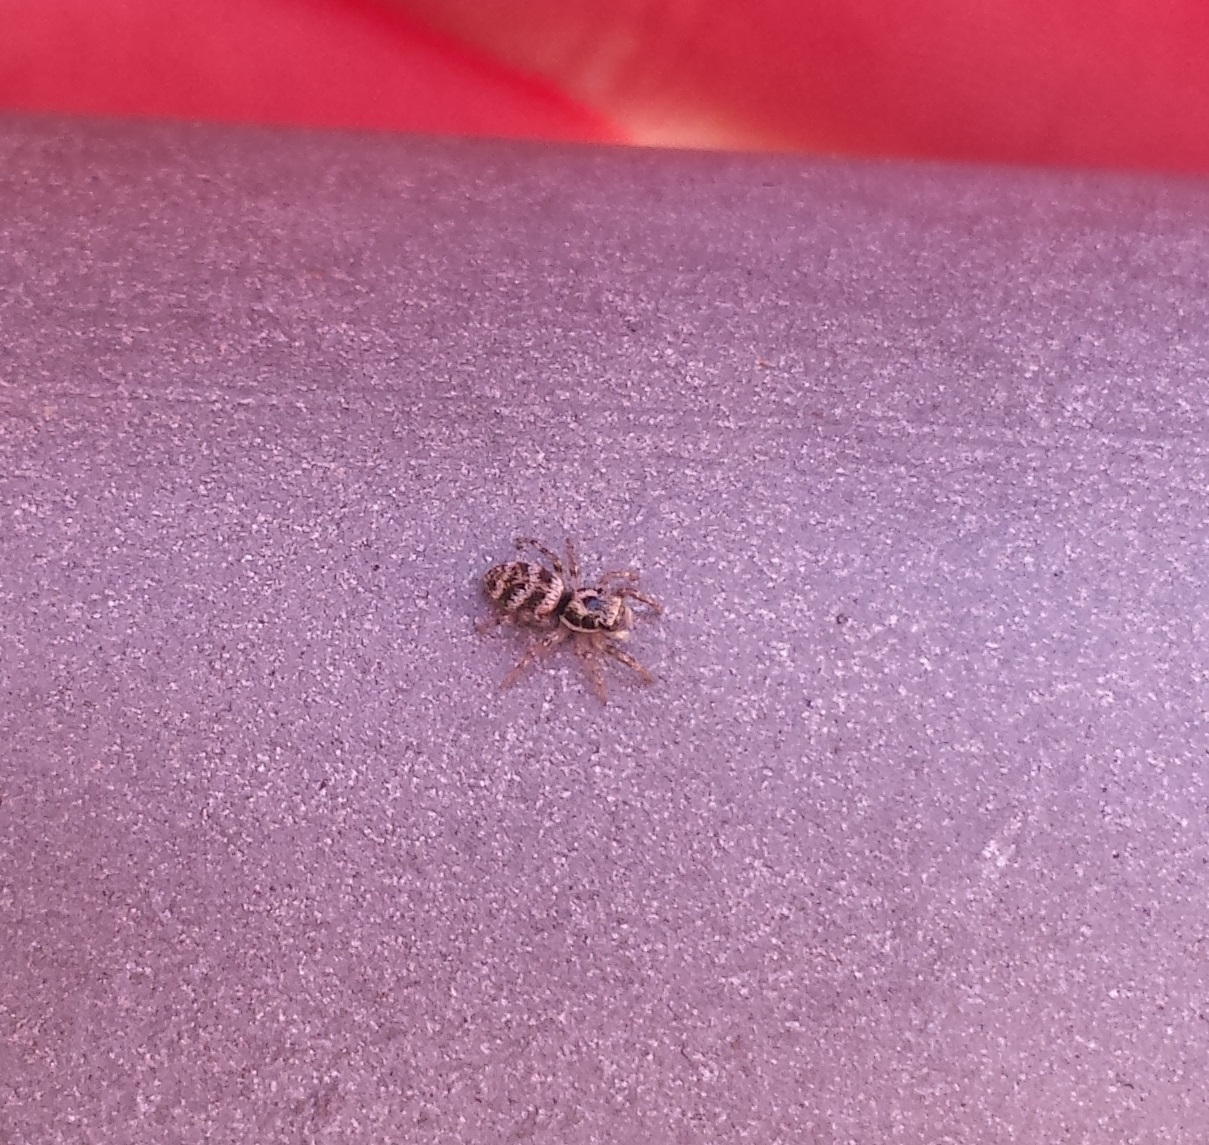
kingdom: Animalia
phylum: Arthropoda
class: Arachnida
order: Araneae
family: Salticidae
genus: Salticus
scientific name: Salticus scenicus
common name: Zebra jumper
